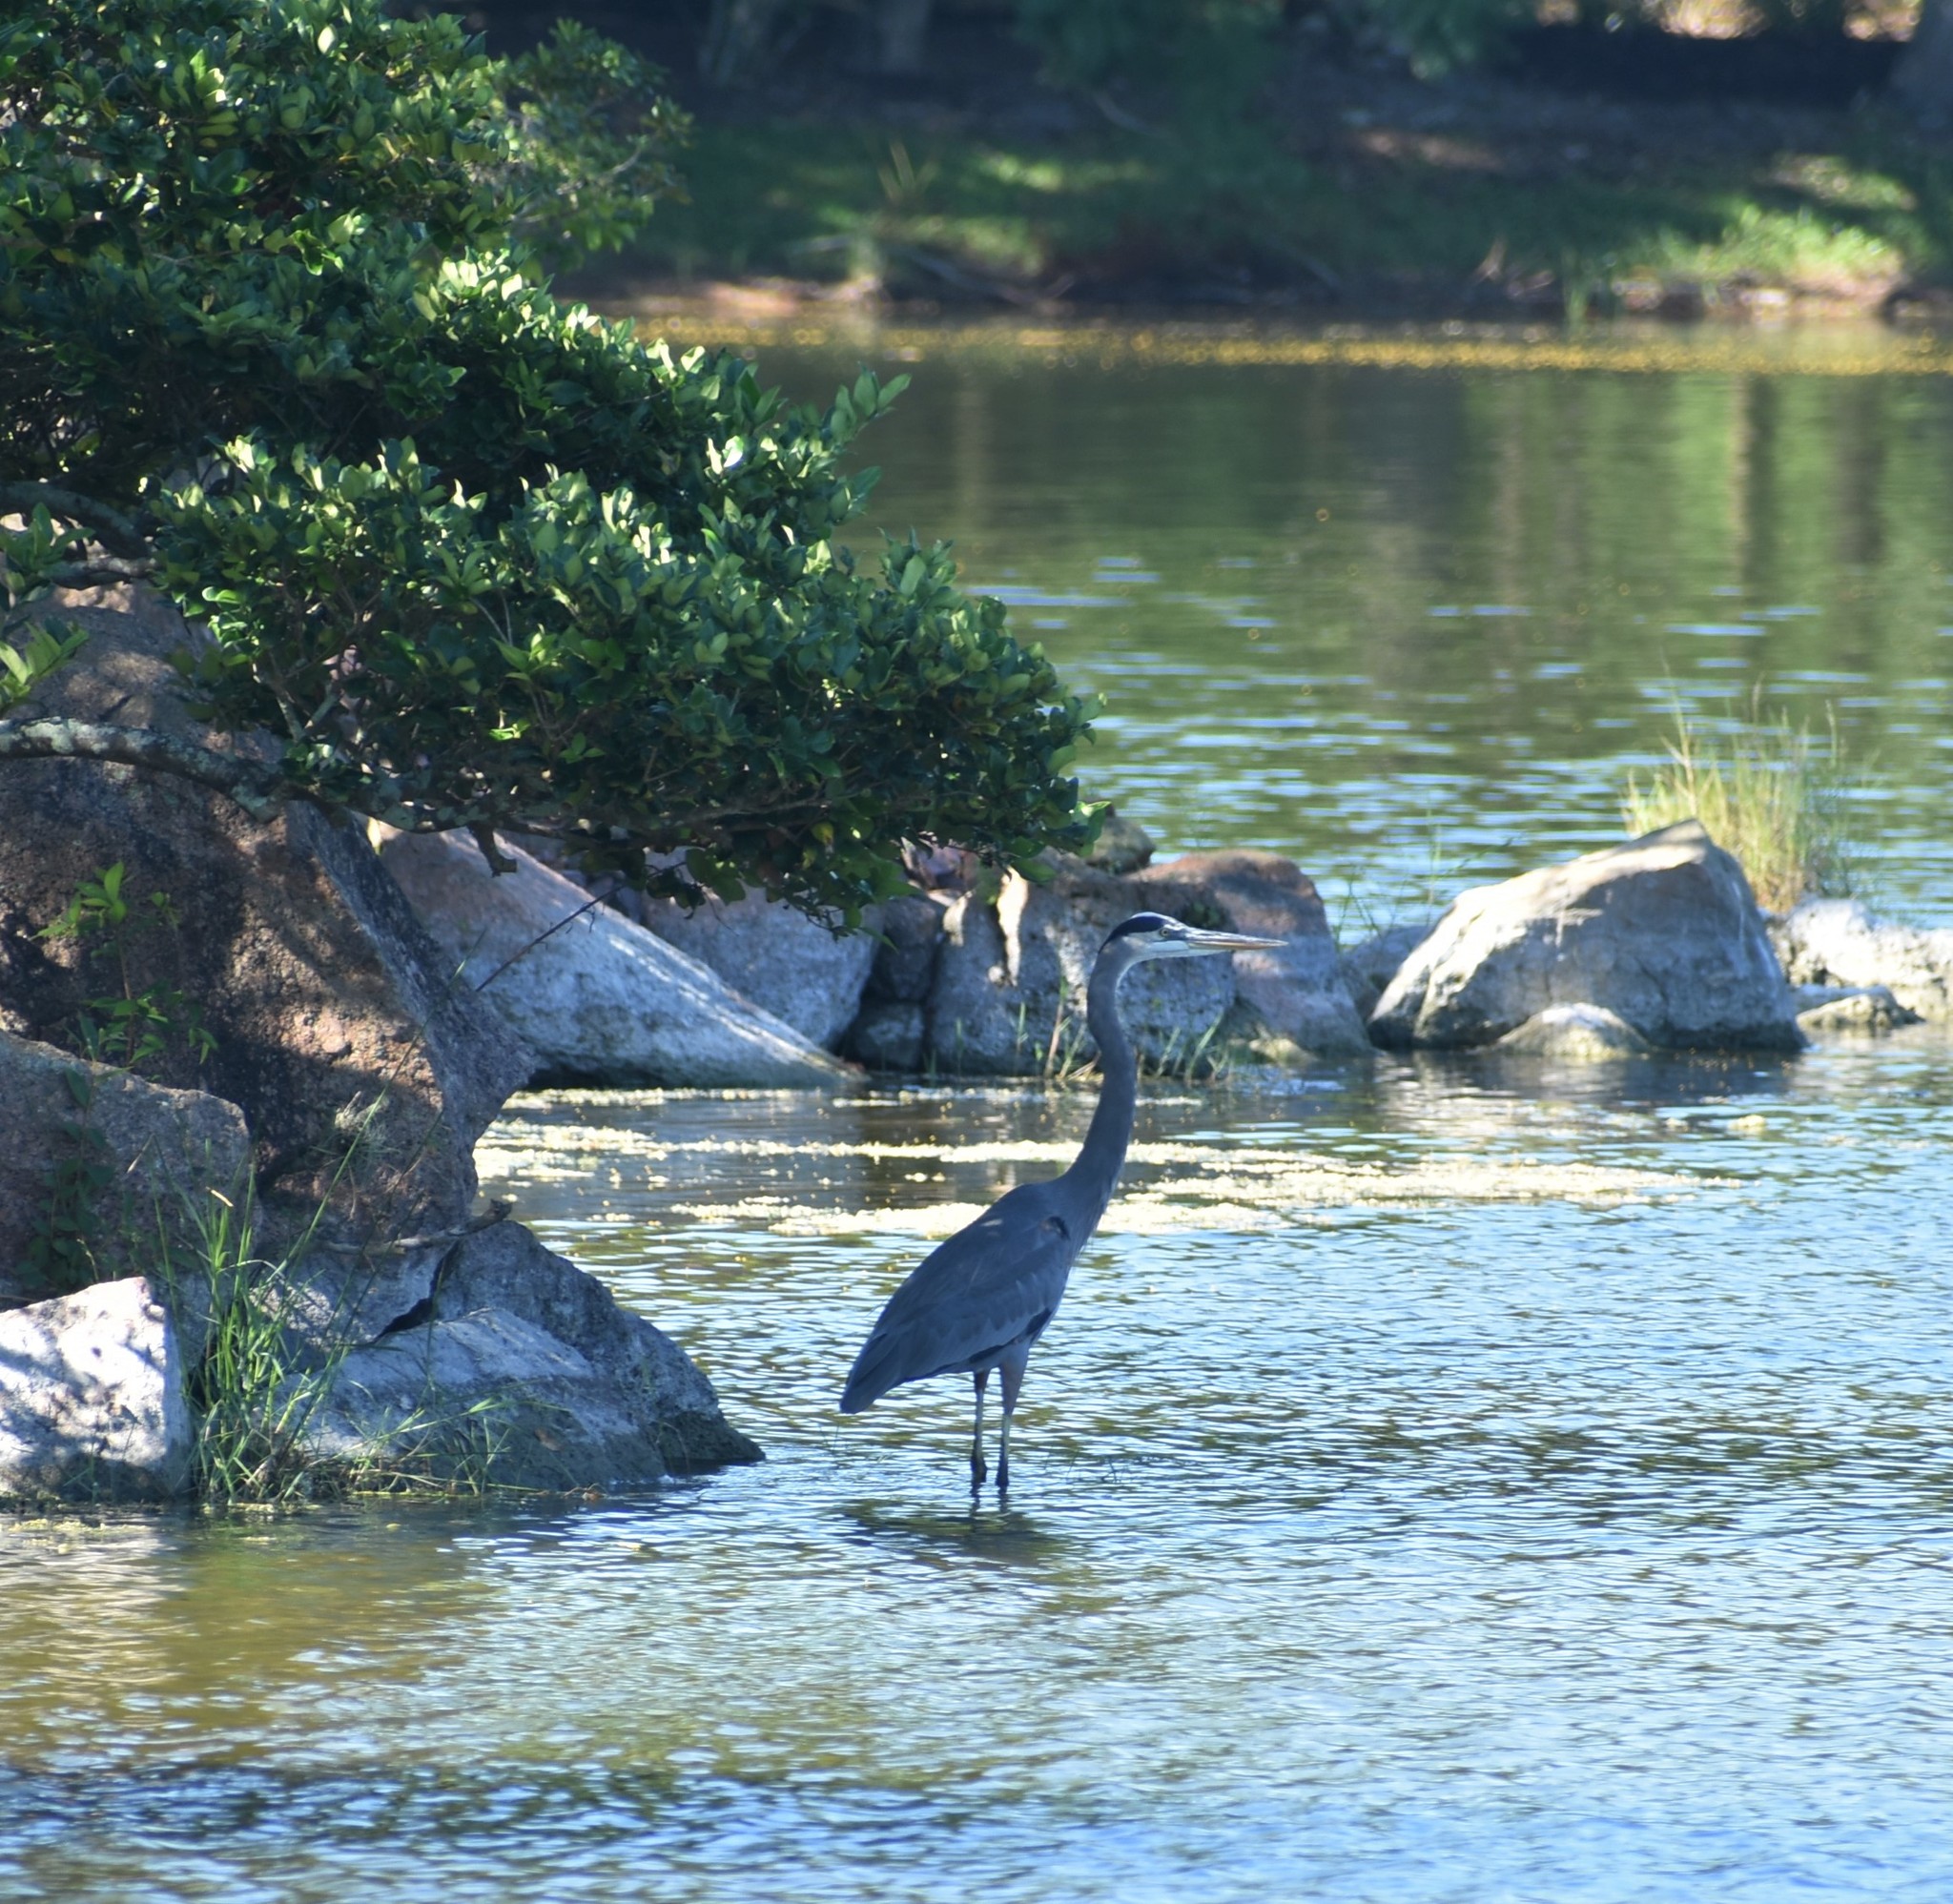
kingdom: Animalia
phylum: Chordata
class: Aves
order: Pelecaniformes
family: Ardeidae
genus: Ardea
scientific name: Ardea herodias
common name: Great blue heron
